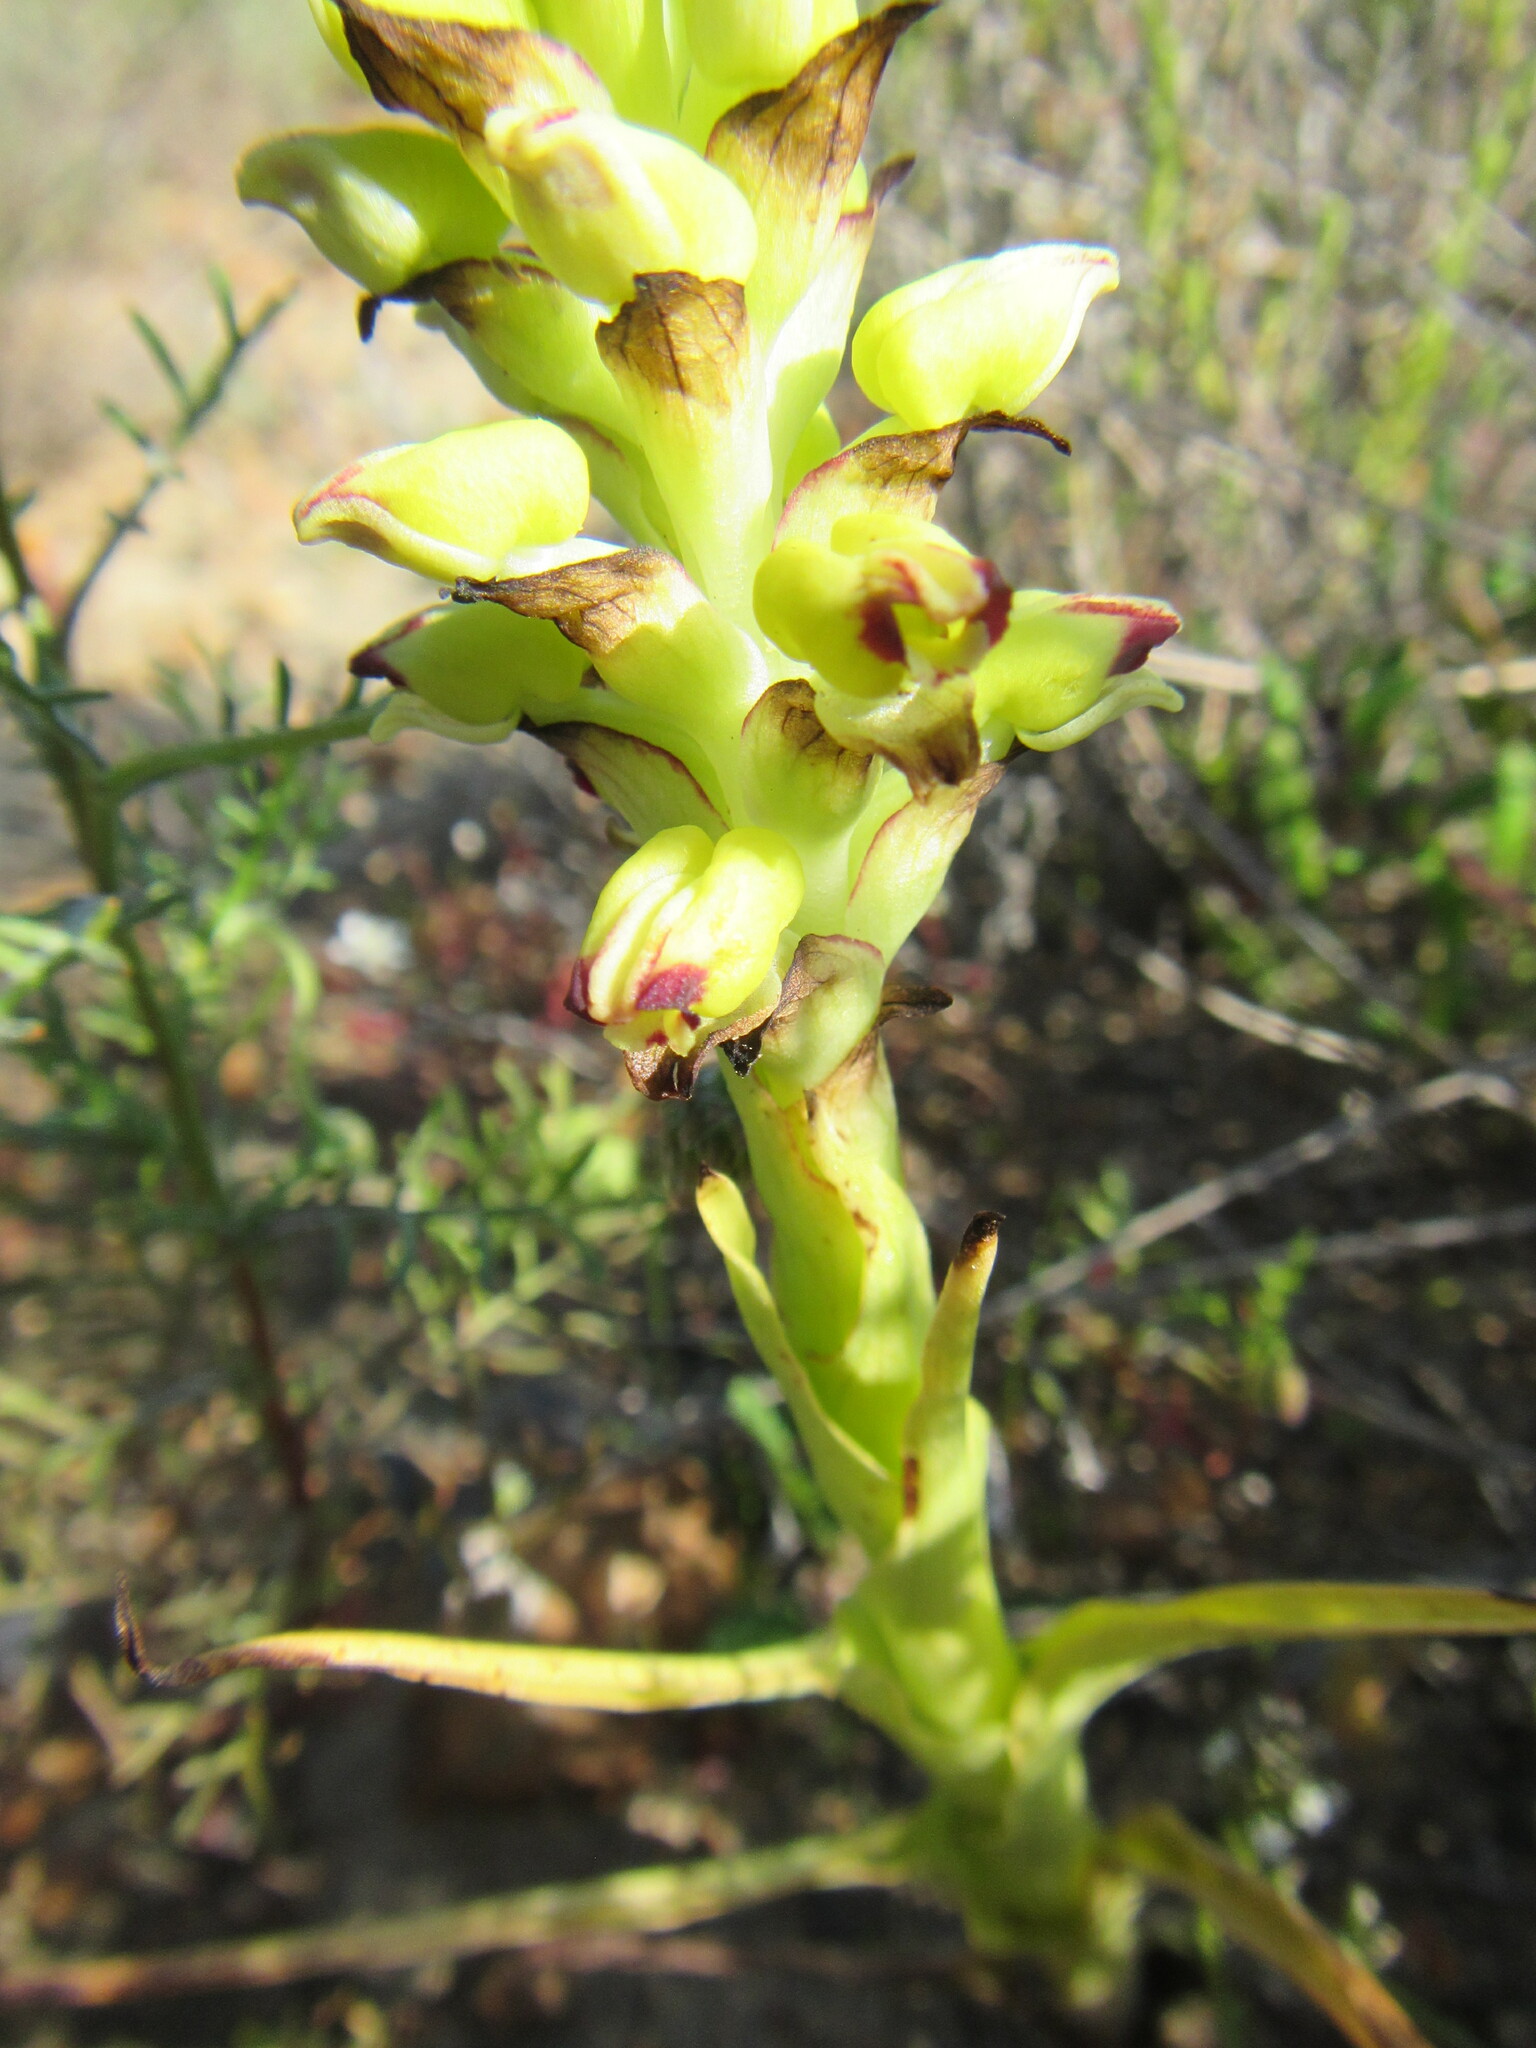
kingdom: Plantae
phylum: Tracheophyta
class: Liliopsida
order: Asparagales
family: Orchidaceae
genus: Corycium
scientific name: Corycium orobanchoides
